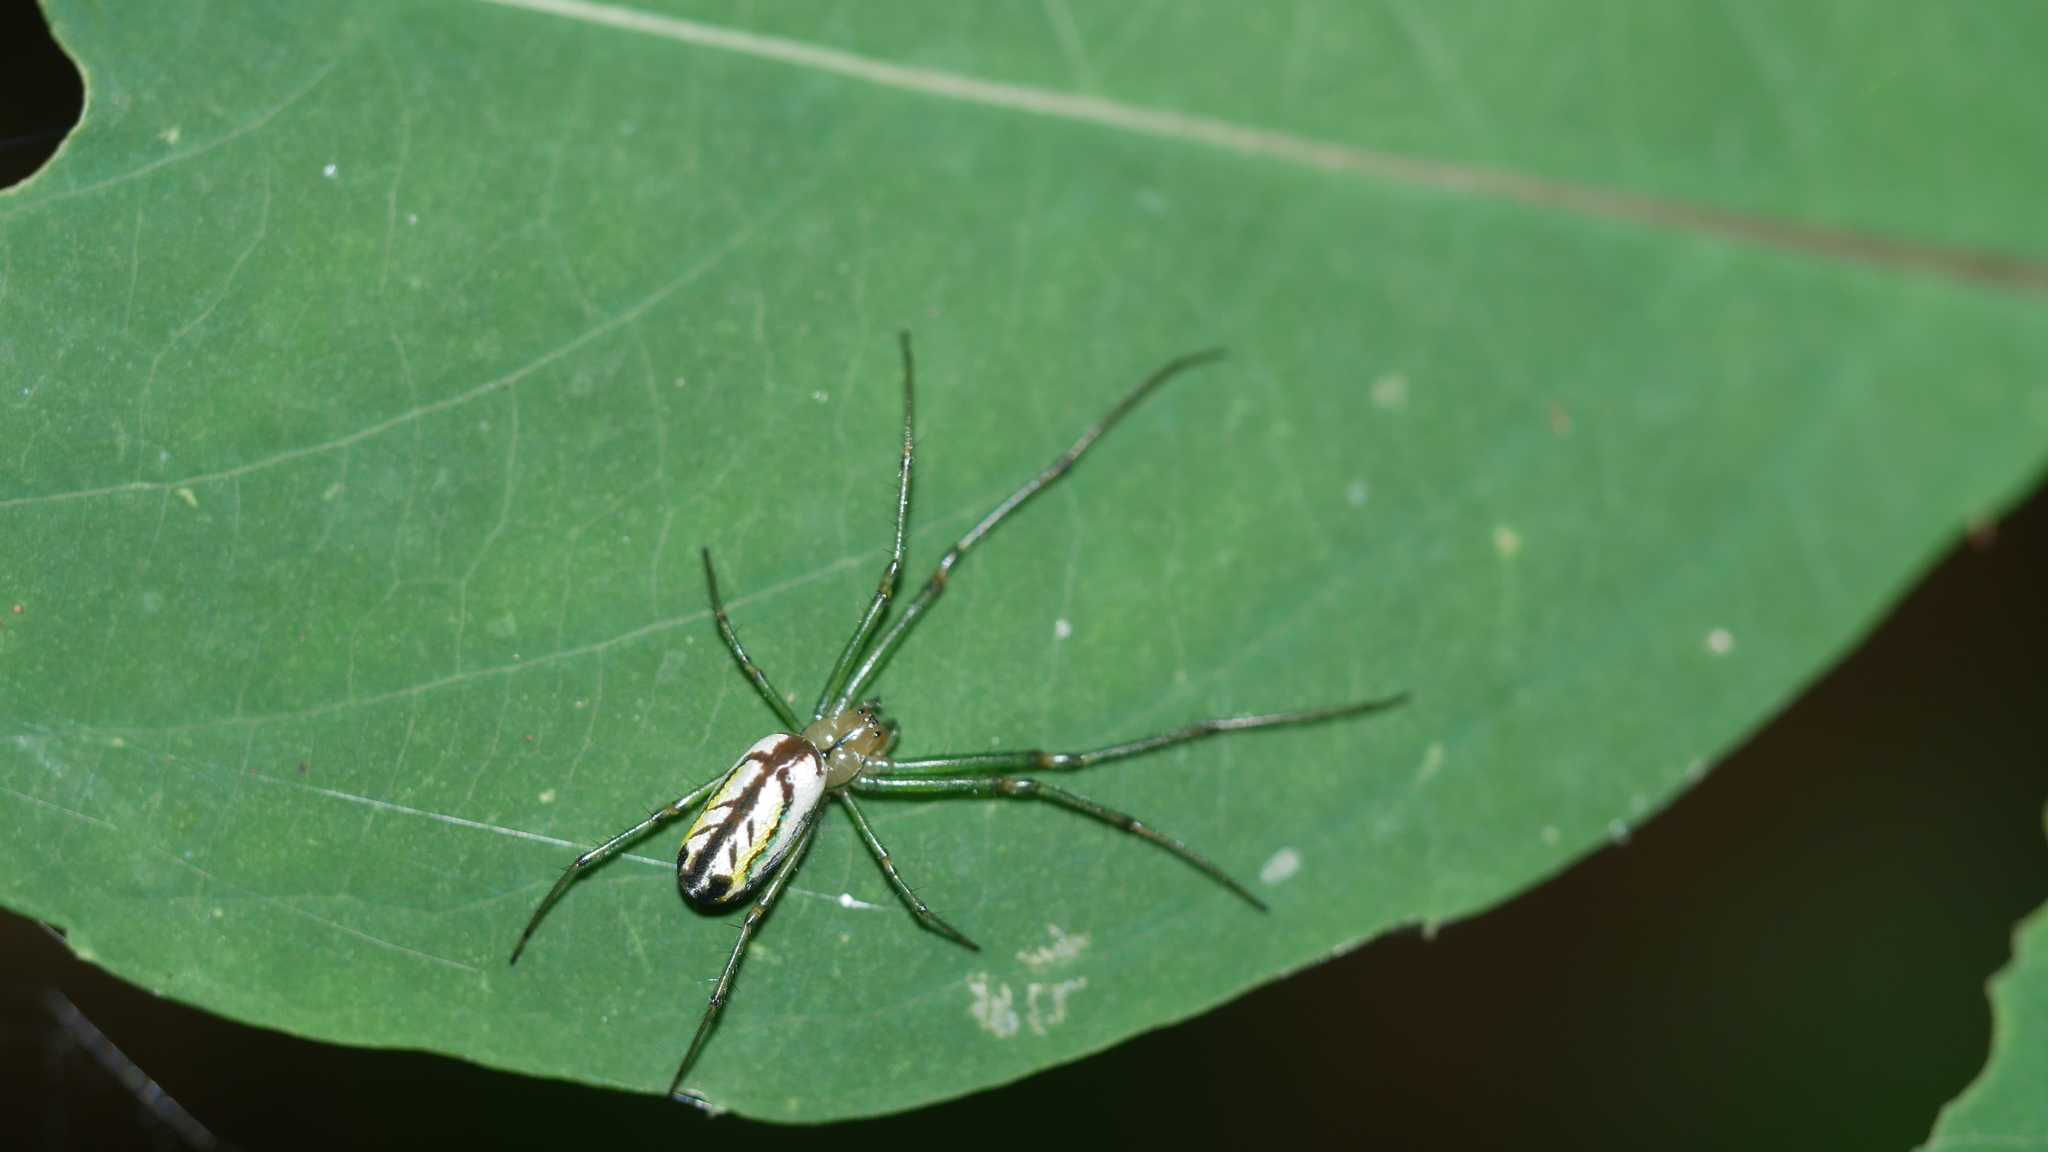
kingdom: Animalia
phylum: Arthropoda
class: Arachnida
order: Araneae
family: Tetragnathidae
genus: Leucauge
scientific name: Leucauge venusta
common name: Longjawed orb weavers
